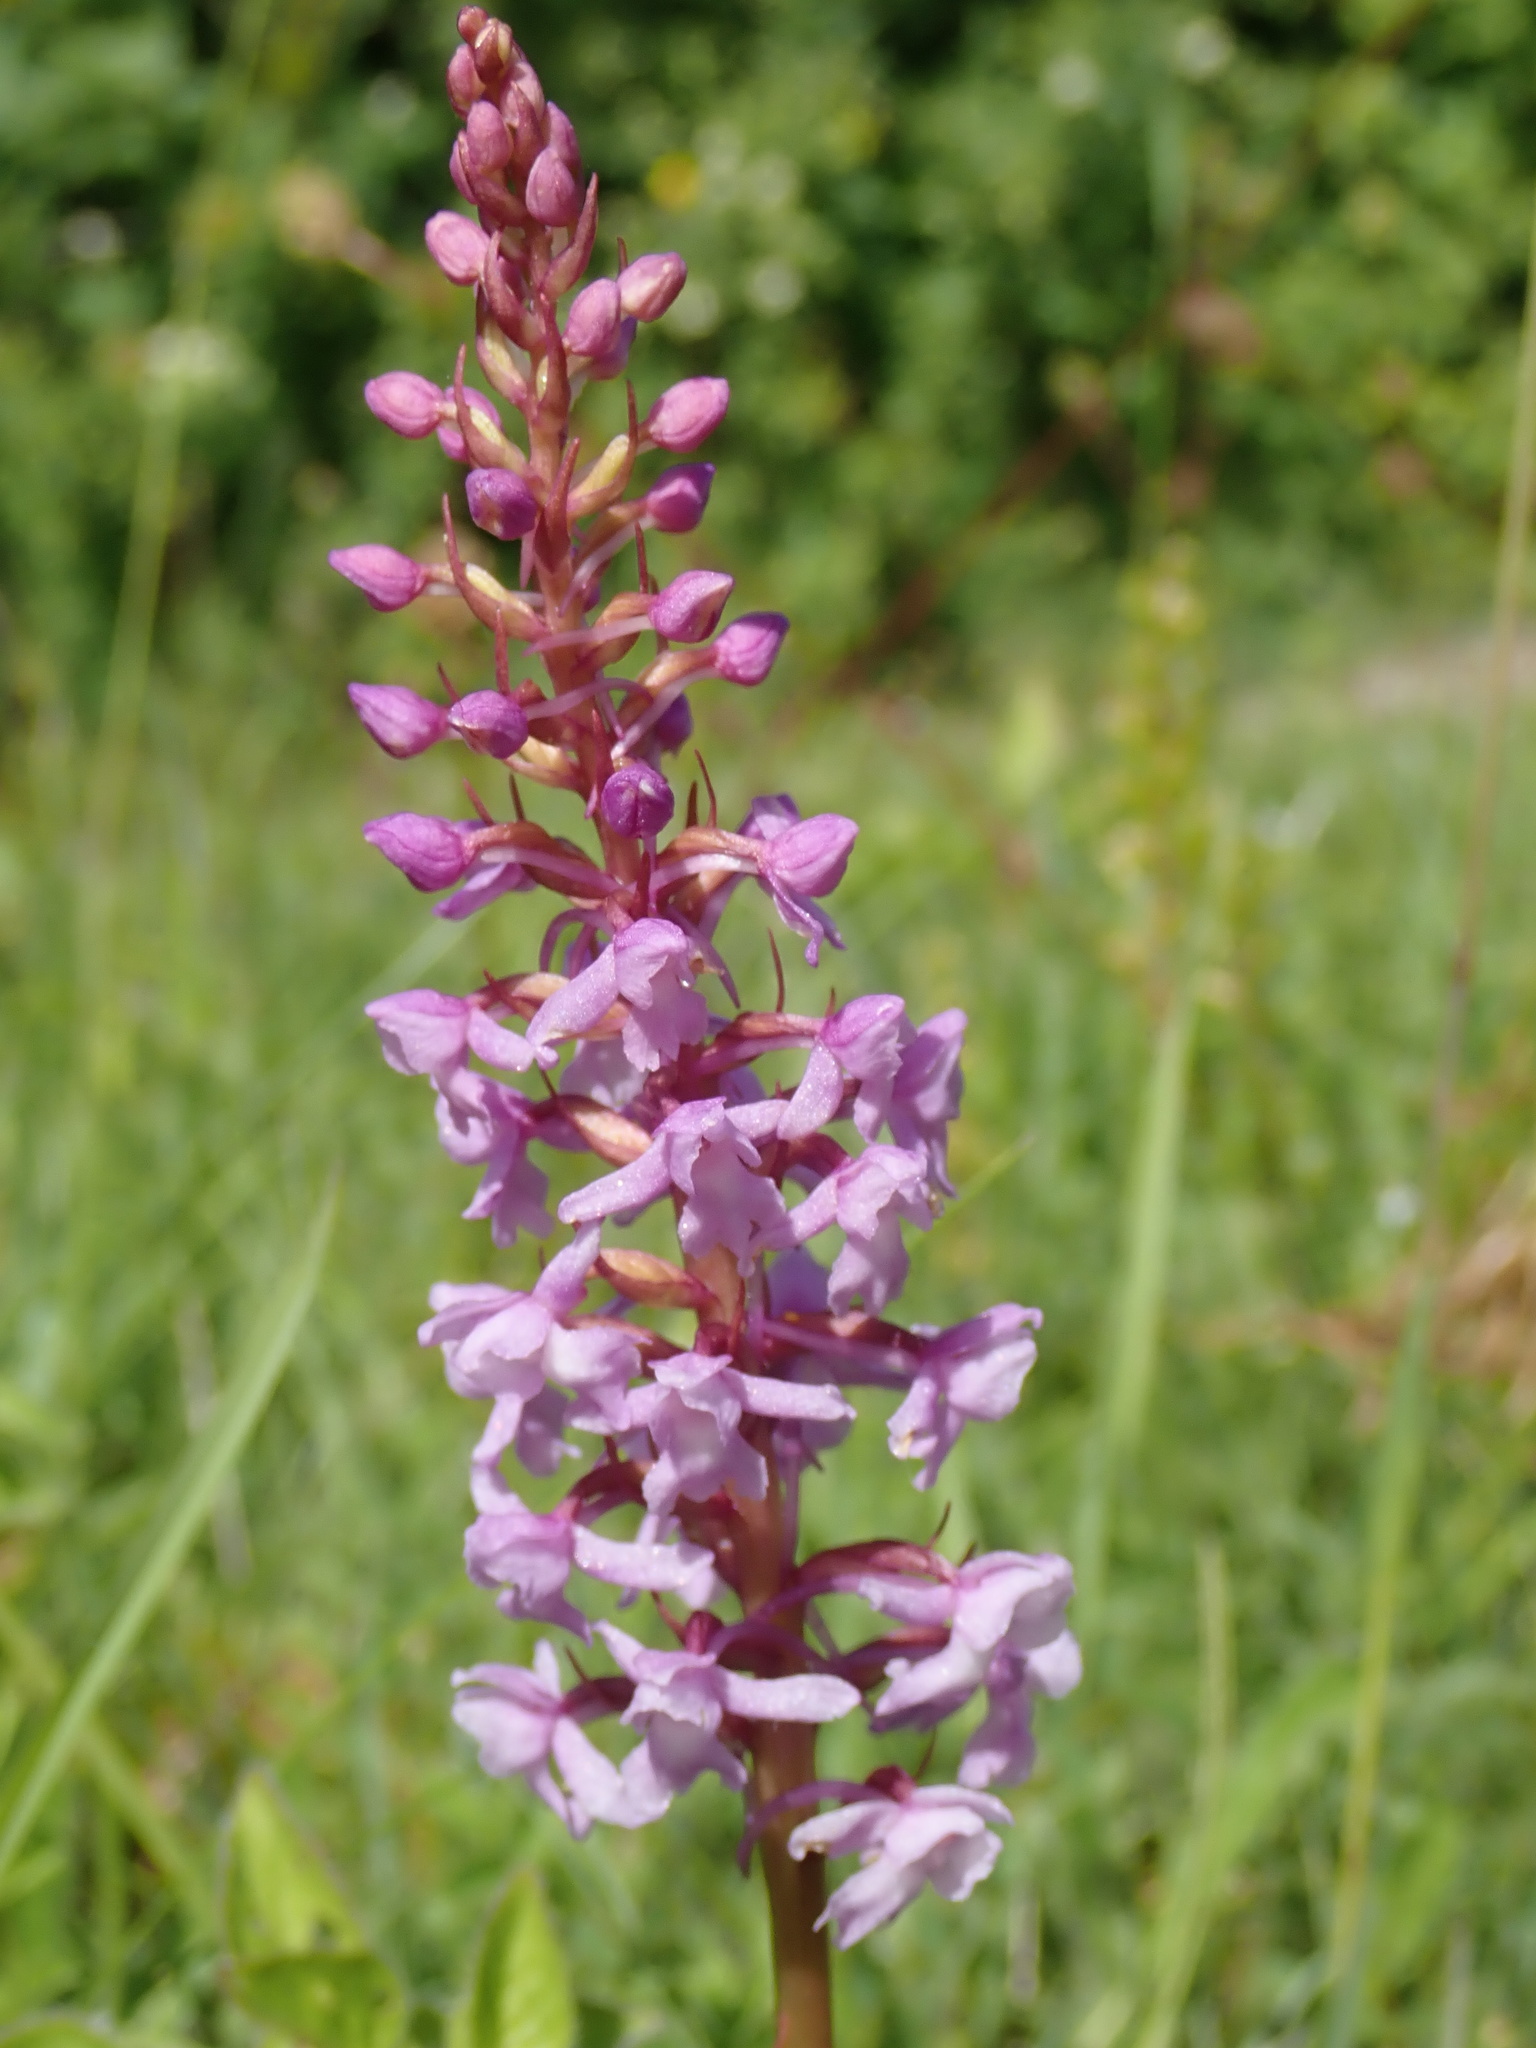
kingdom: Plantae
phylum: Tracheophyta
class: Liliopsida
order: Asparagales
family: Orchidaceae
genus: Gymnadenia
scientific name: Gymnadenia conopsea
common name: Fragrant orchid
